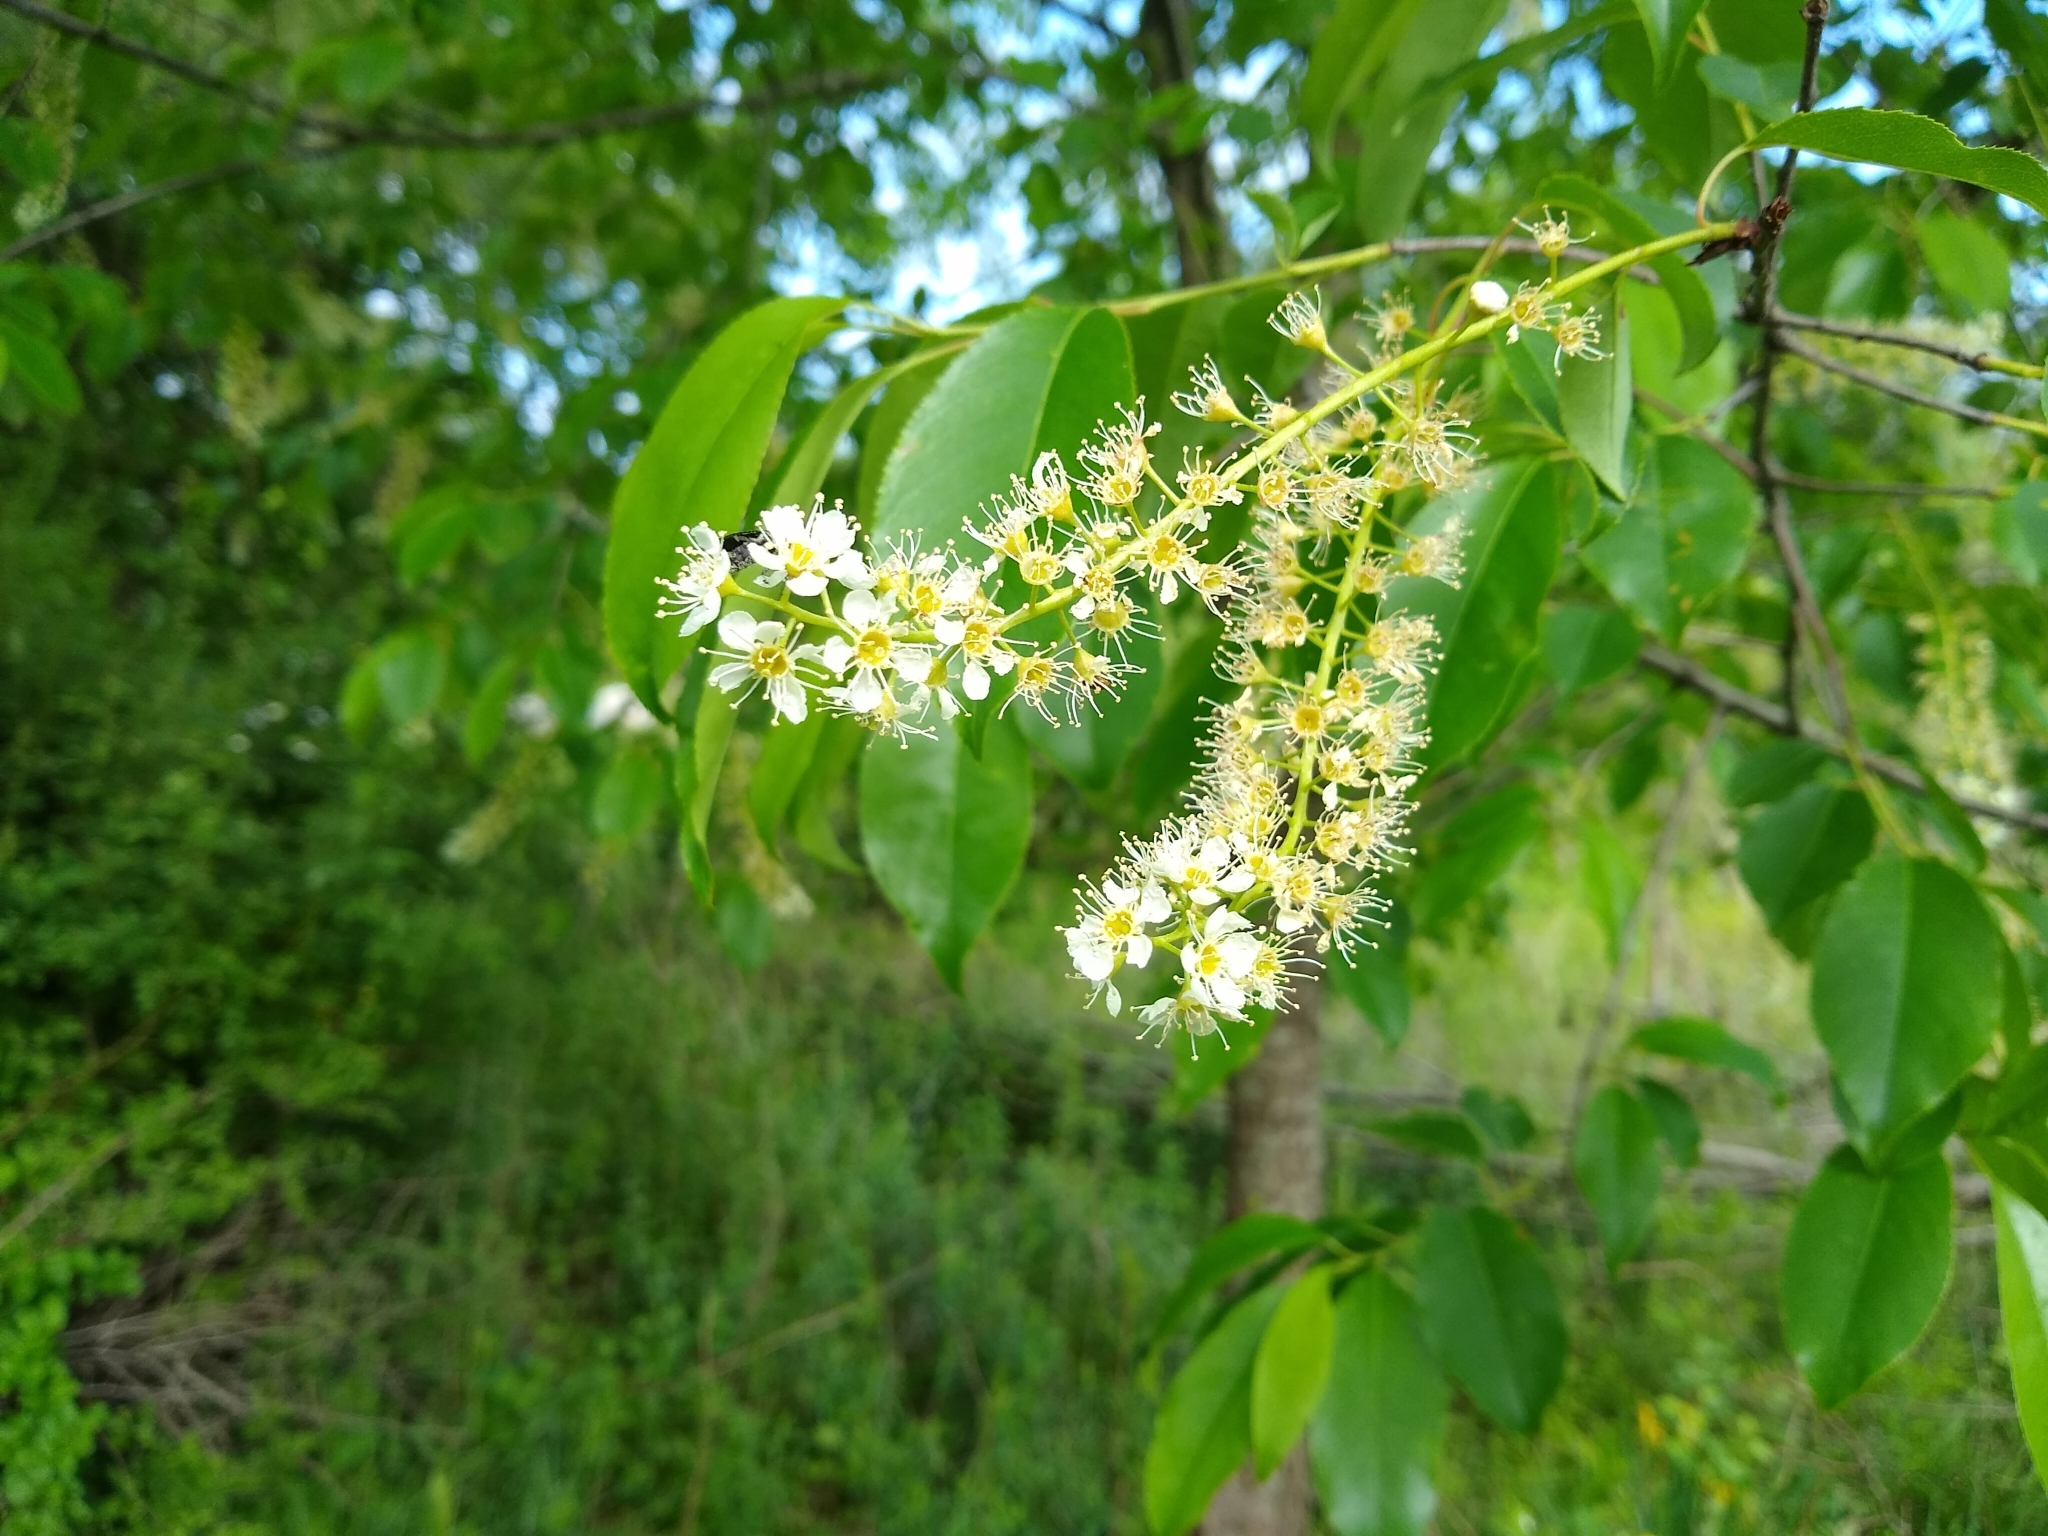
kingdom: Plantae
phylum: Tracheophyta
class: Magnoliopsida
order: Rosales
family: Rosaceae
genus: Prunus
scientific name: Prunus serotina
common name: Black cherry
